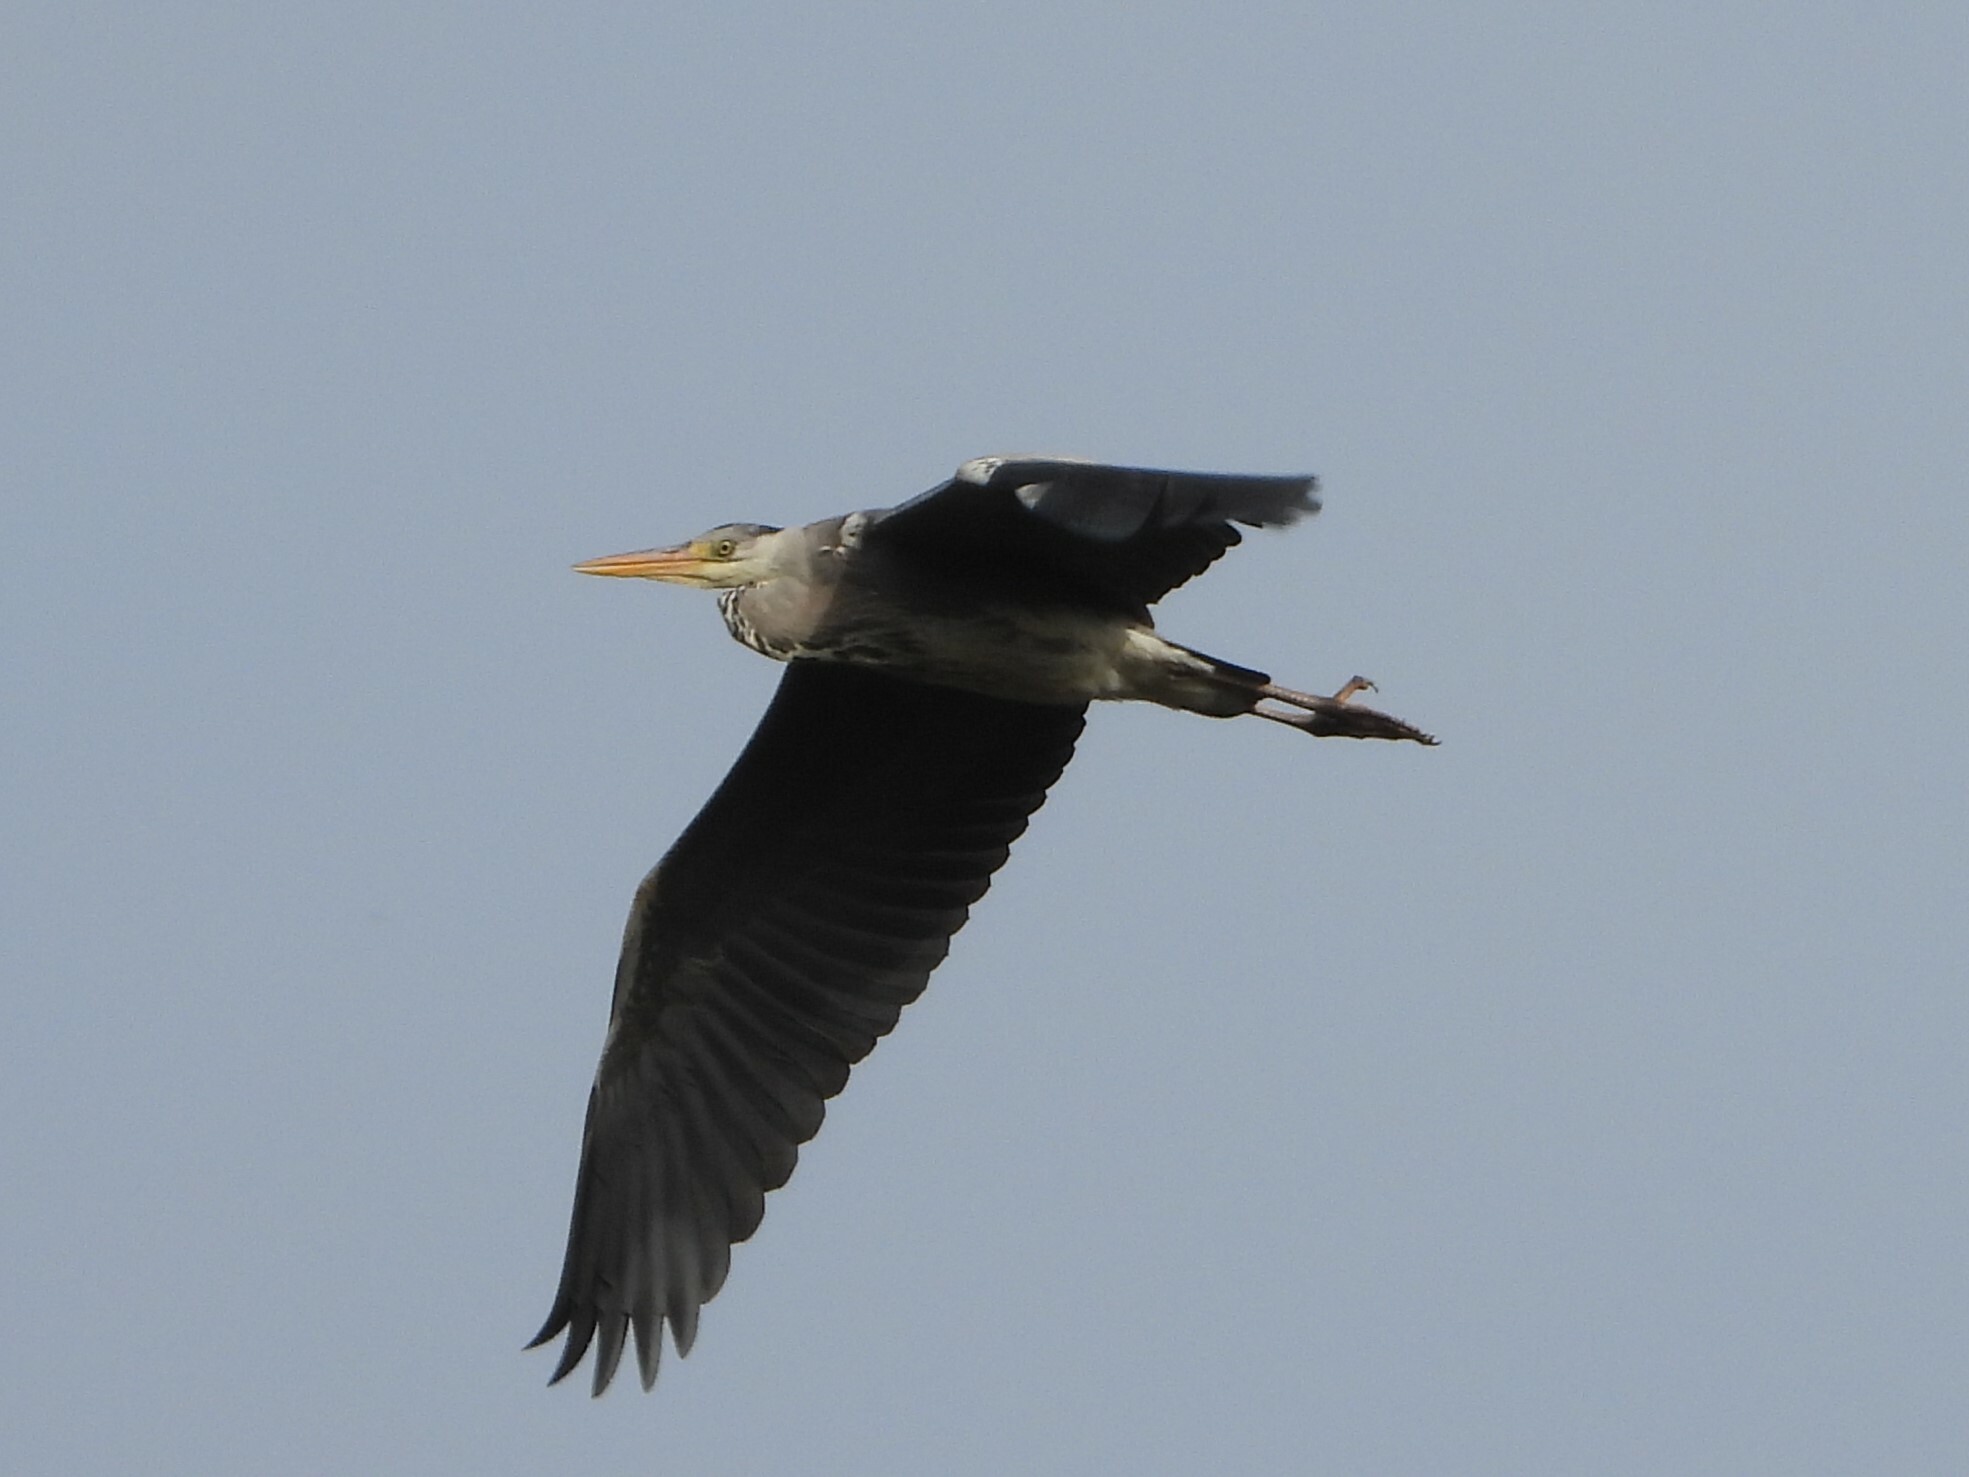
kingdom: Animalia
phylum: Chordata
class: Aves
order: Pelecaniformes
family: Ardeidae
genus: Ardea
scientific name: Ardea cinerea
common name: Grey heron
